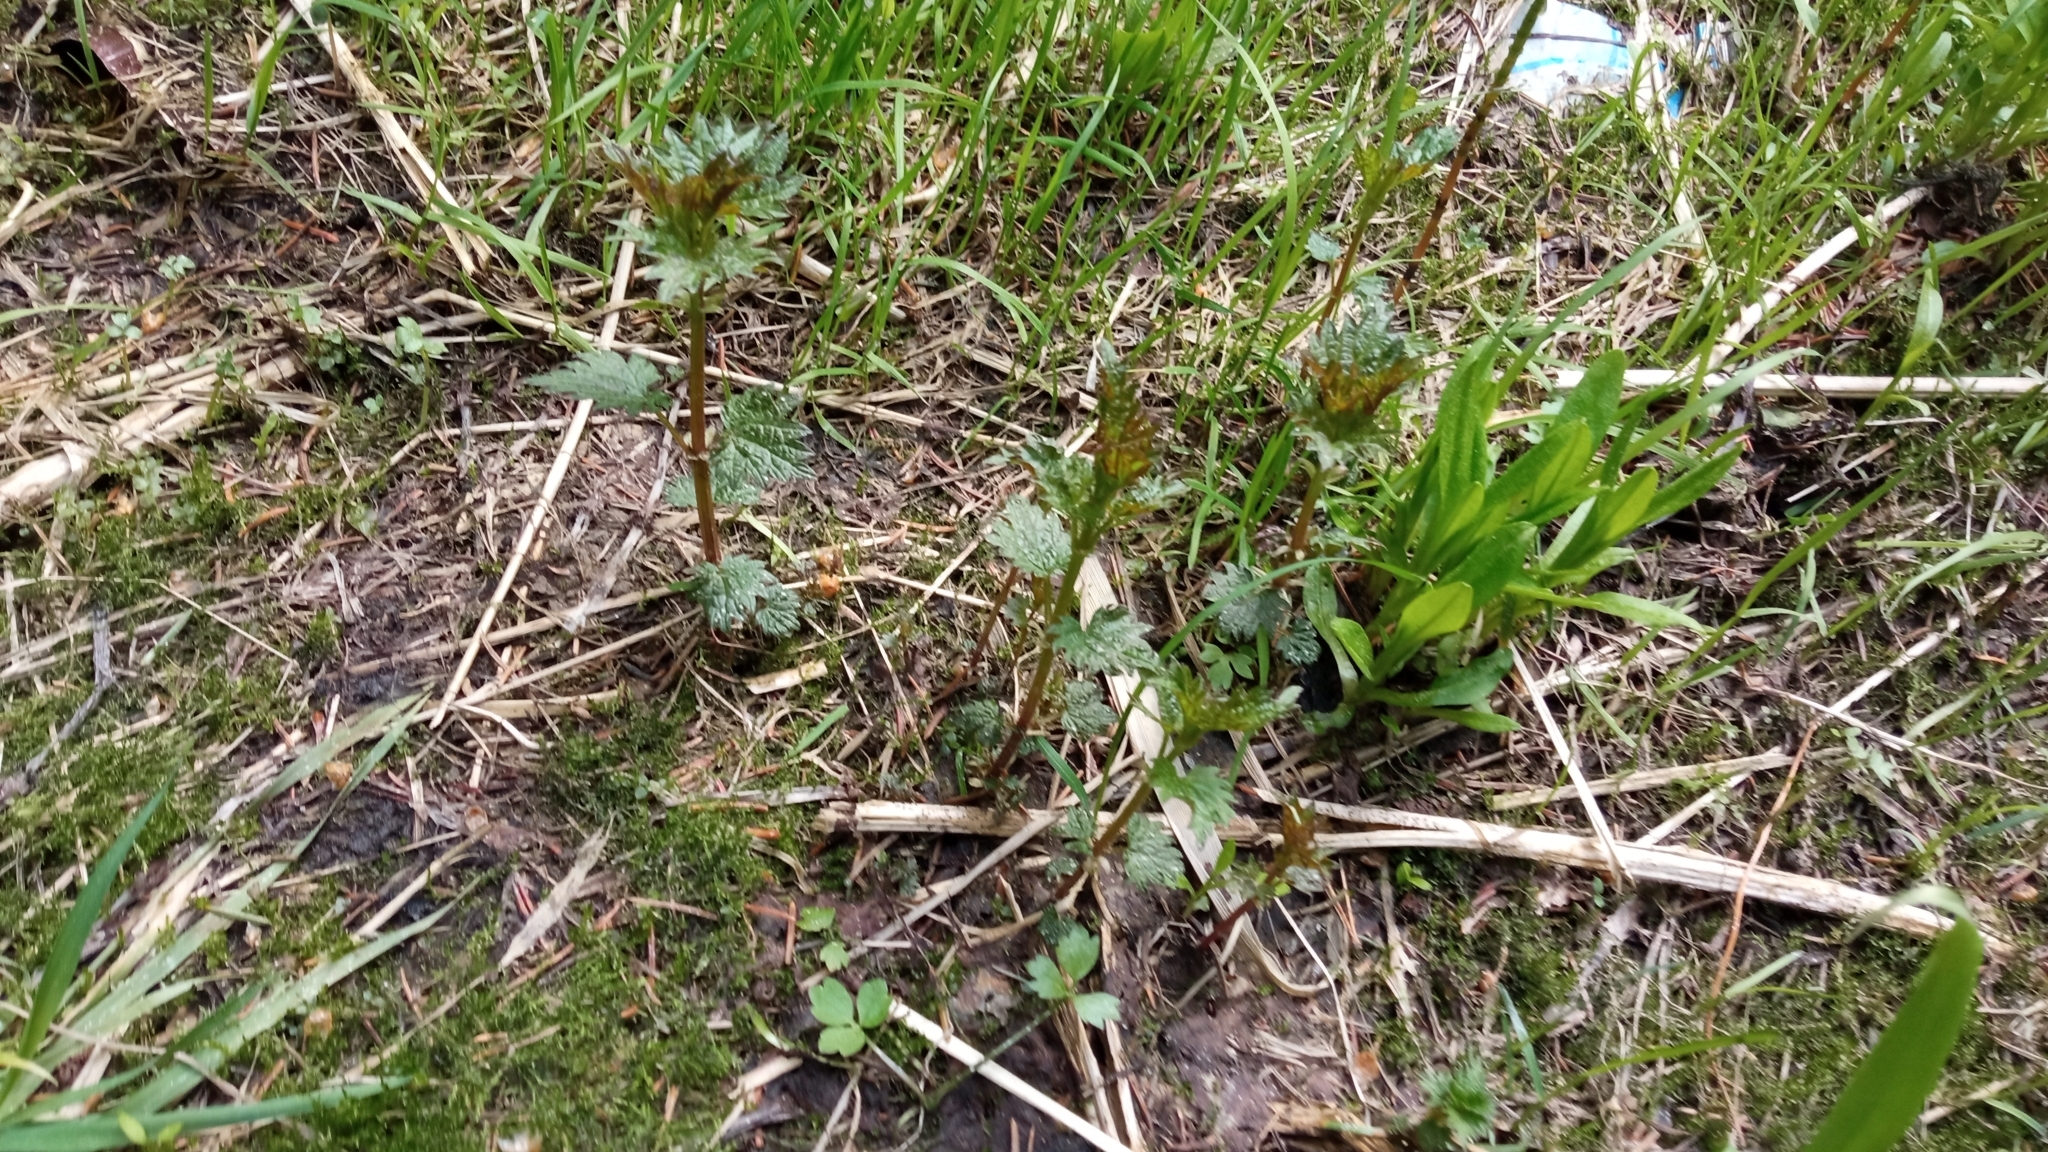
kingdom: Plantae
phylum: Tracheophyta
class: Magnoliopsida
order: Rosales
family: Urticaceae
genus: Urtica
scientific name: Urtica dioica
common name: Common nettle
